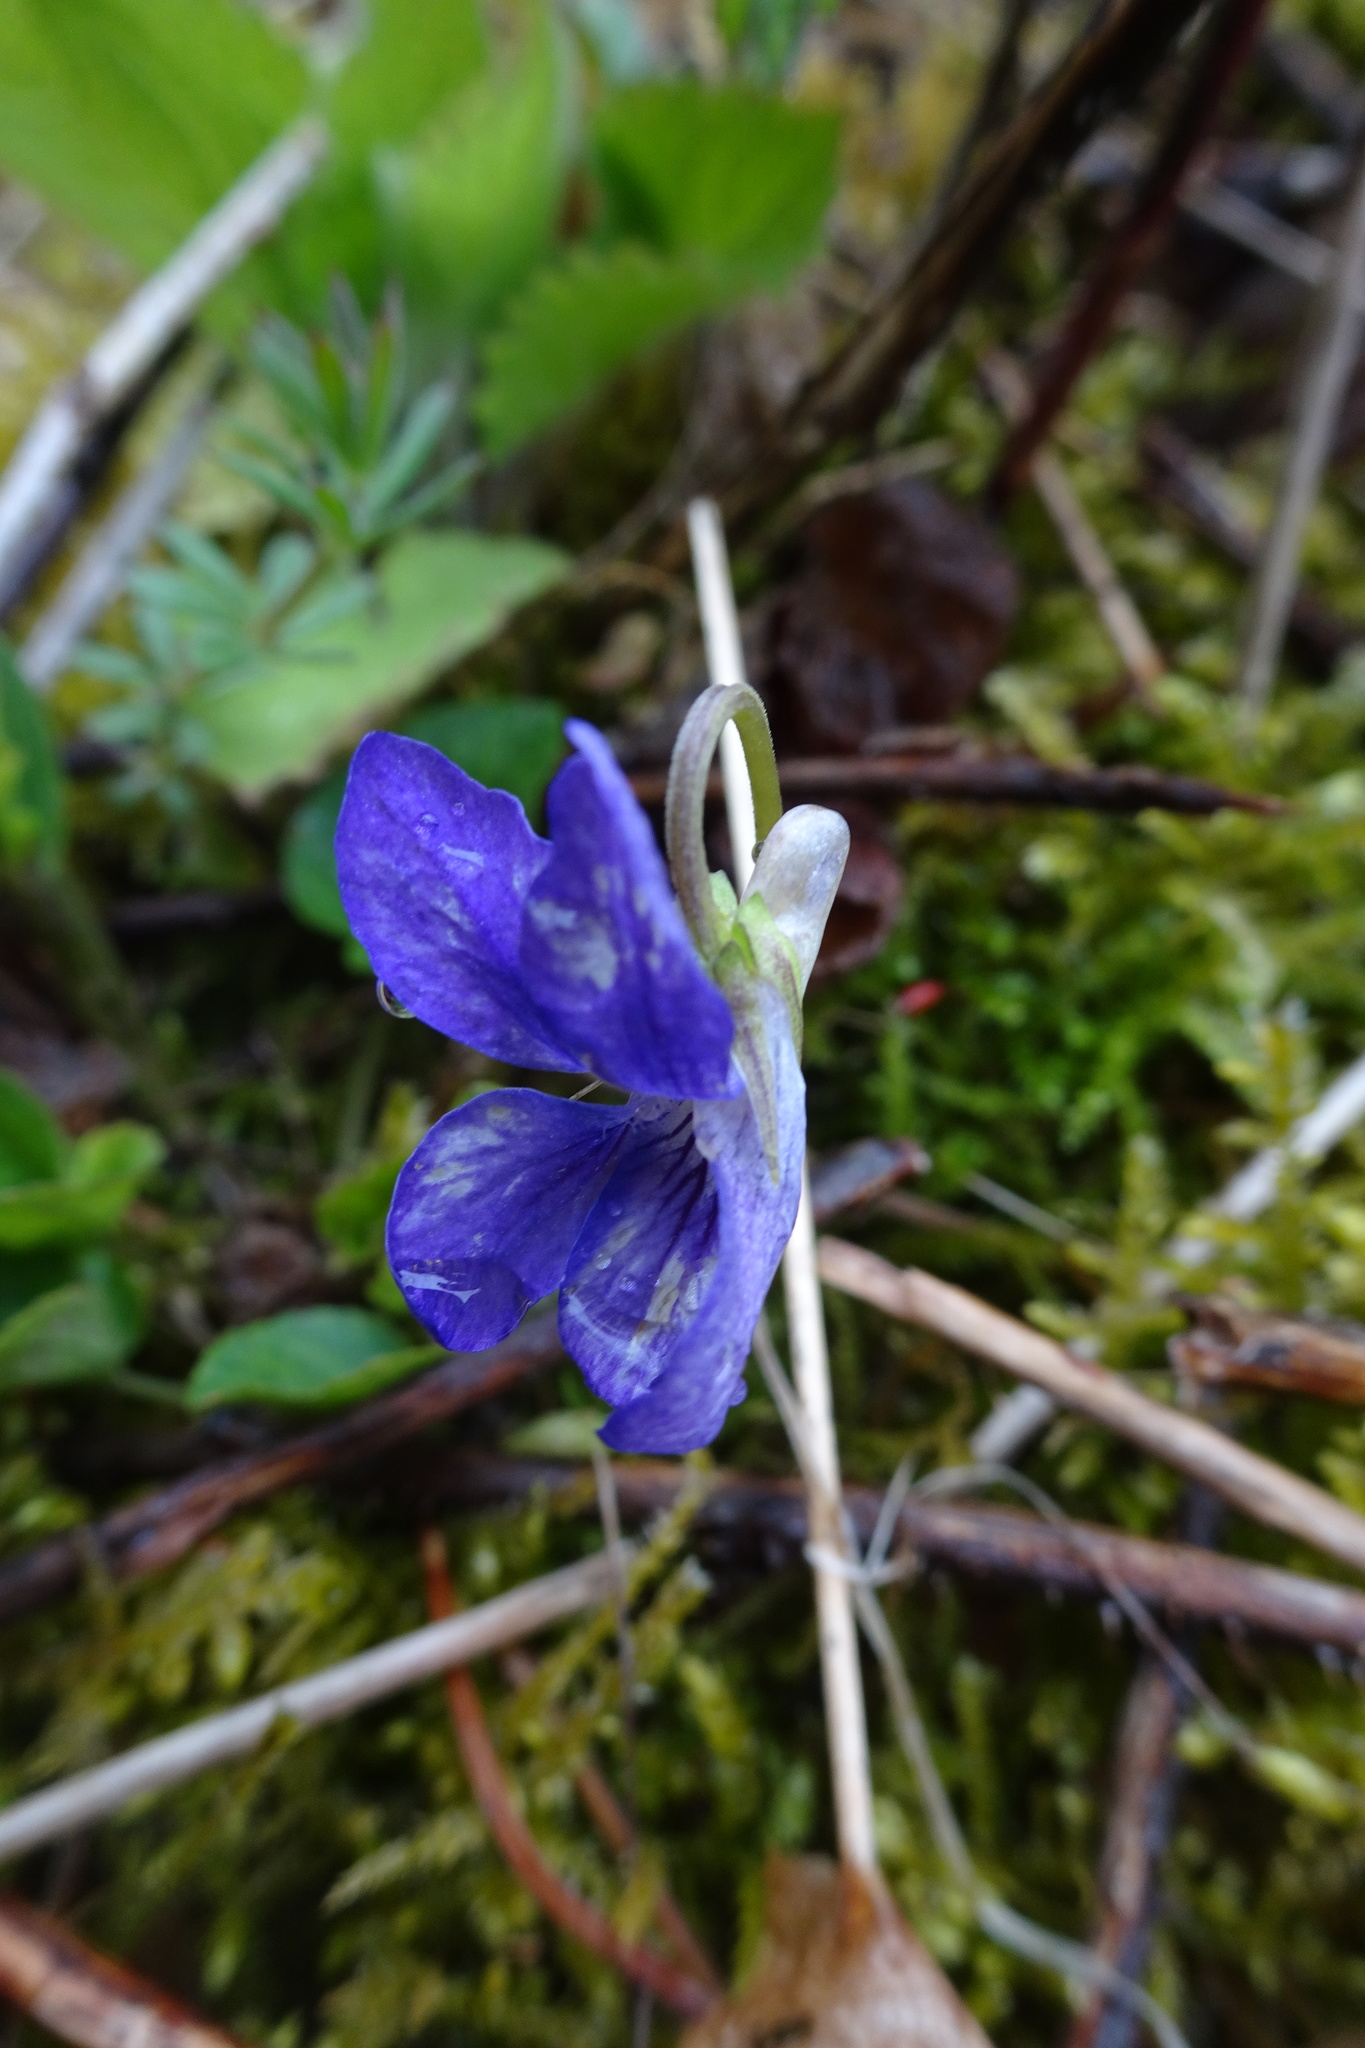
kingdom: Plantae
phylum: Tracheophyta
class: Magnoliopsida
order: Malpighiales
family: Violaceae
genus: Viola
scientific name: Viola riviniana
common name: Common dog-violet
